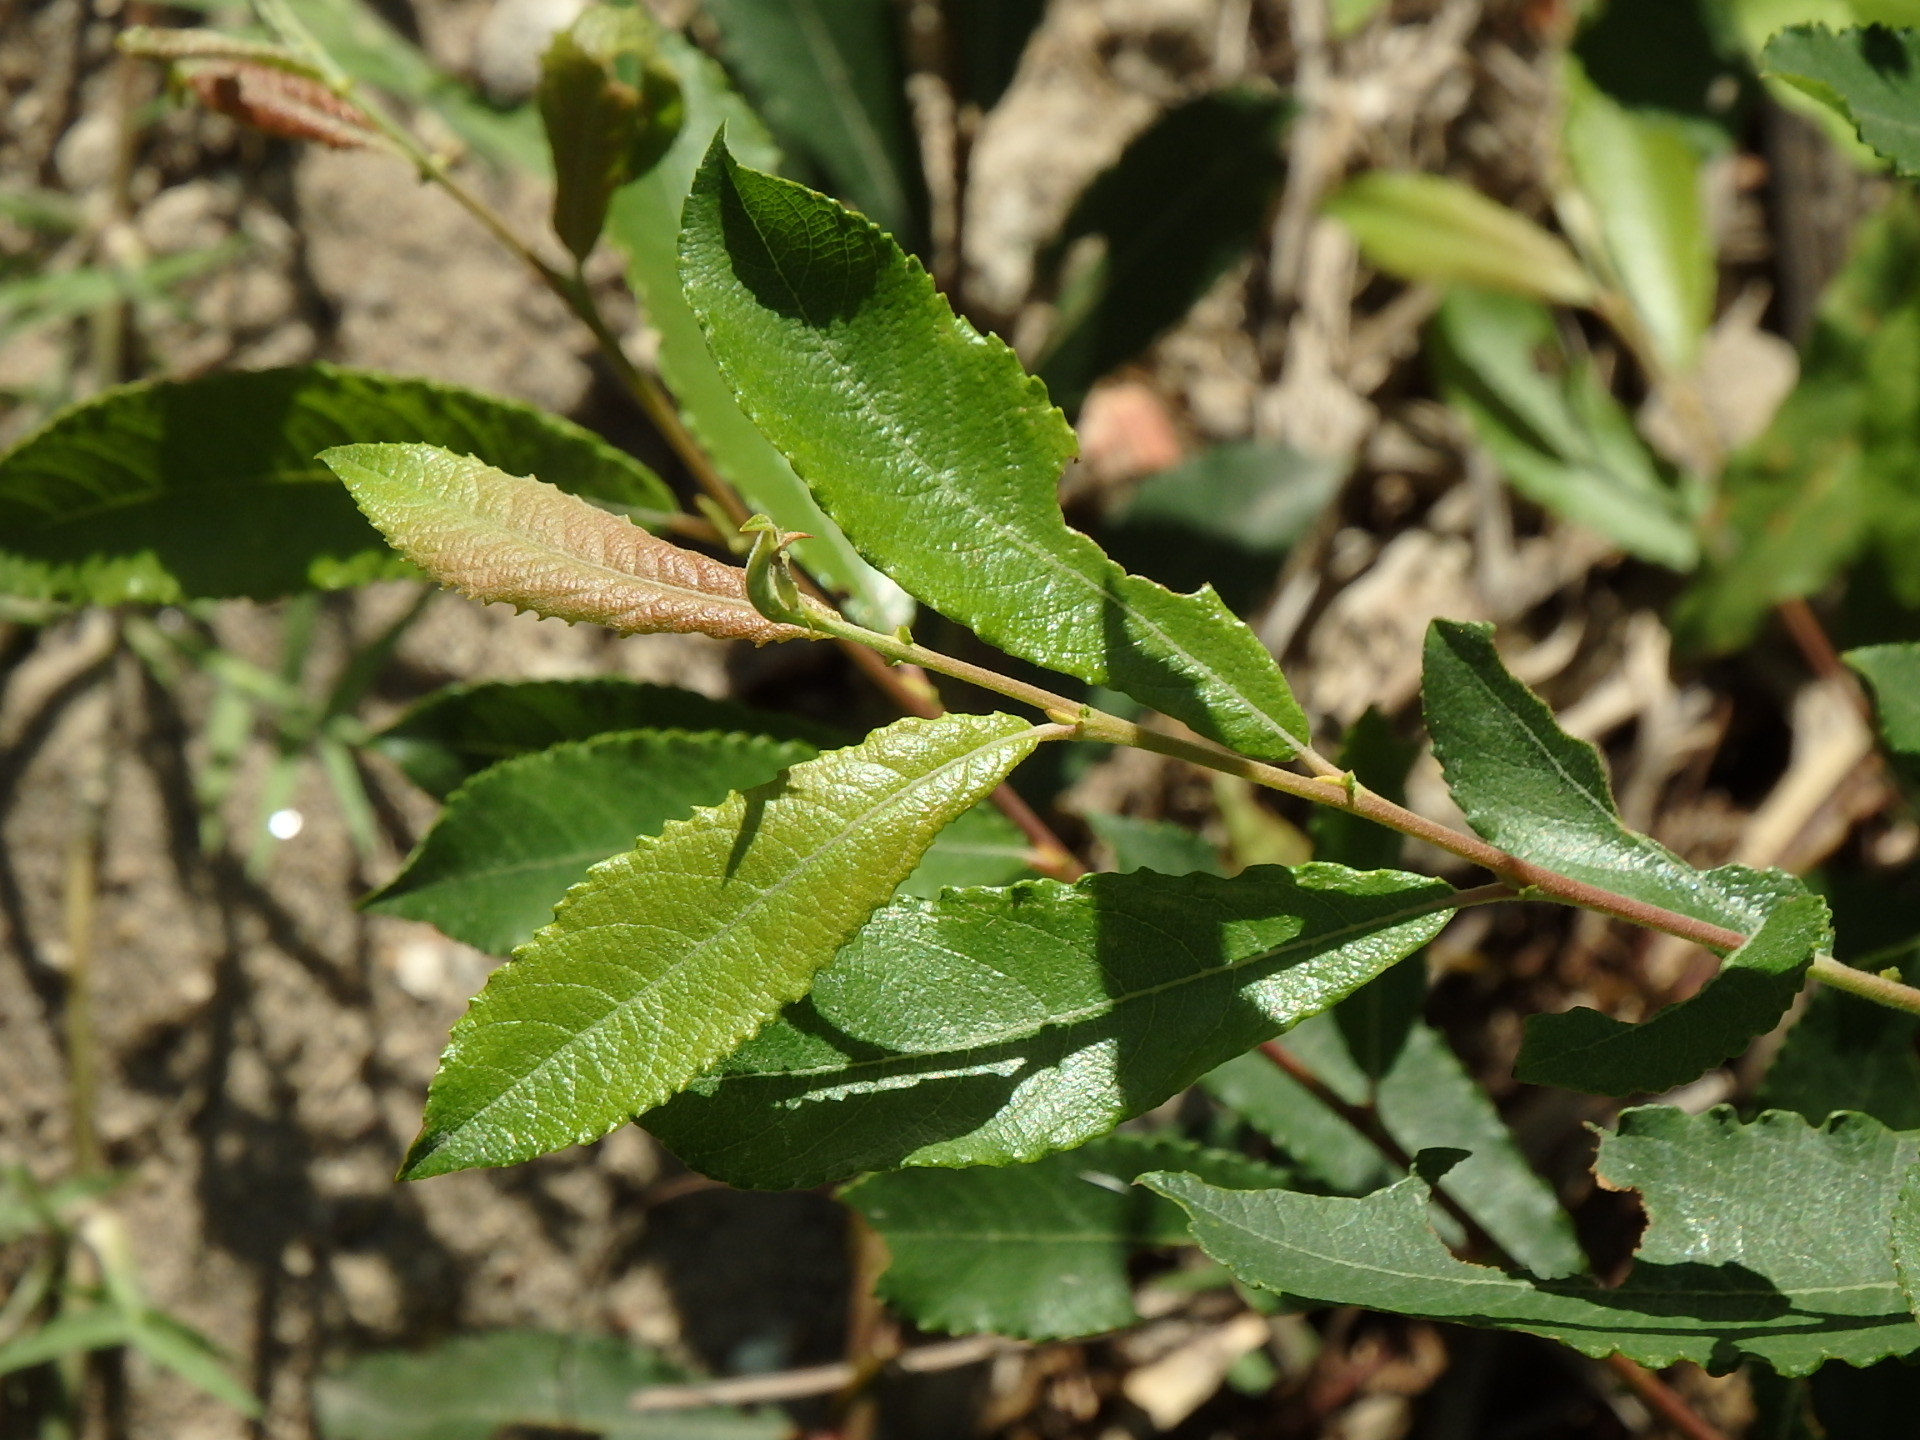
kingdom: Plantae
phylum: Tracheophyta
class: Magnoliopsida
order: Malpighiales
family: Salicaceae
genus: Salix
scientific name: Salix atrocinerea
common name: Rusty willow
